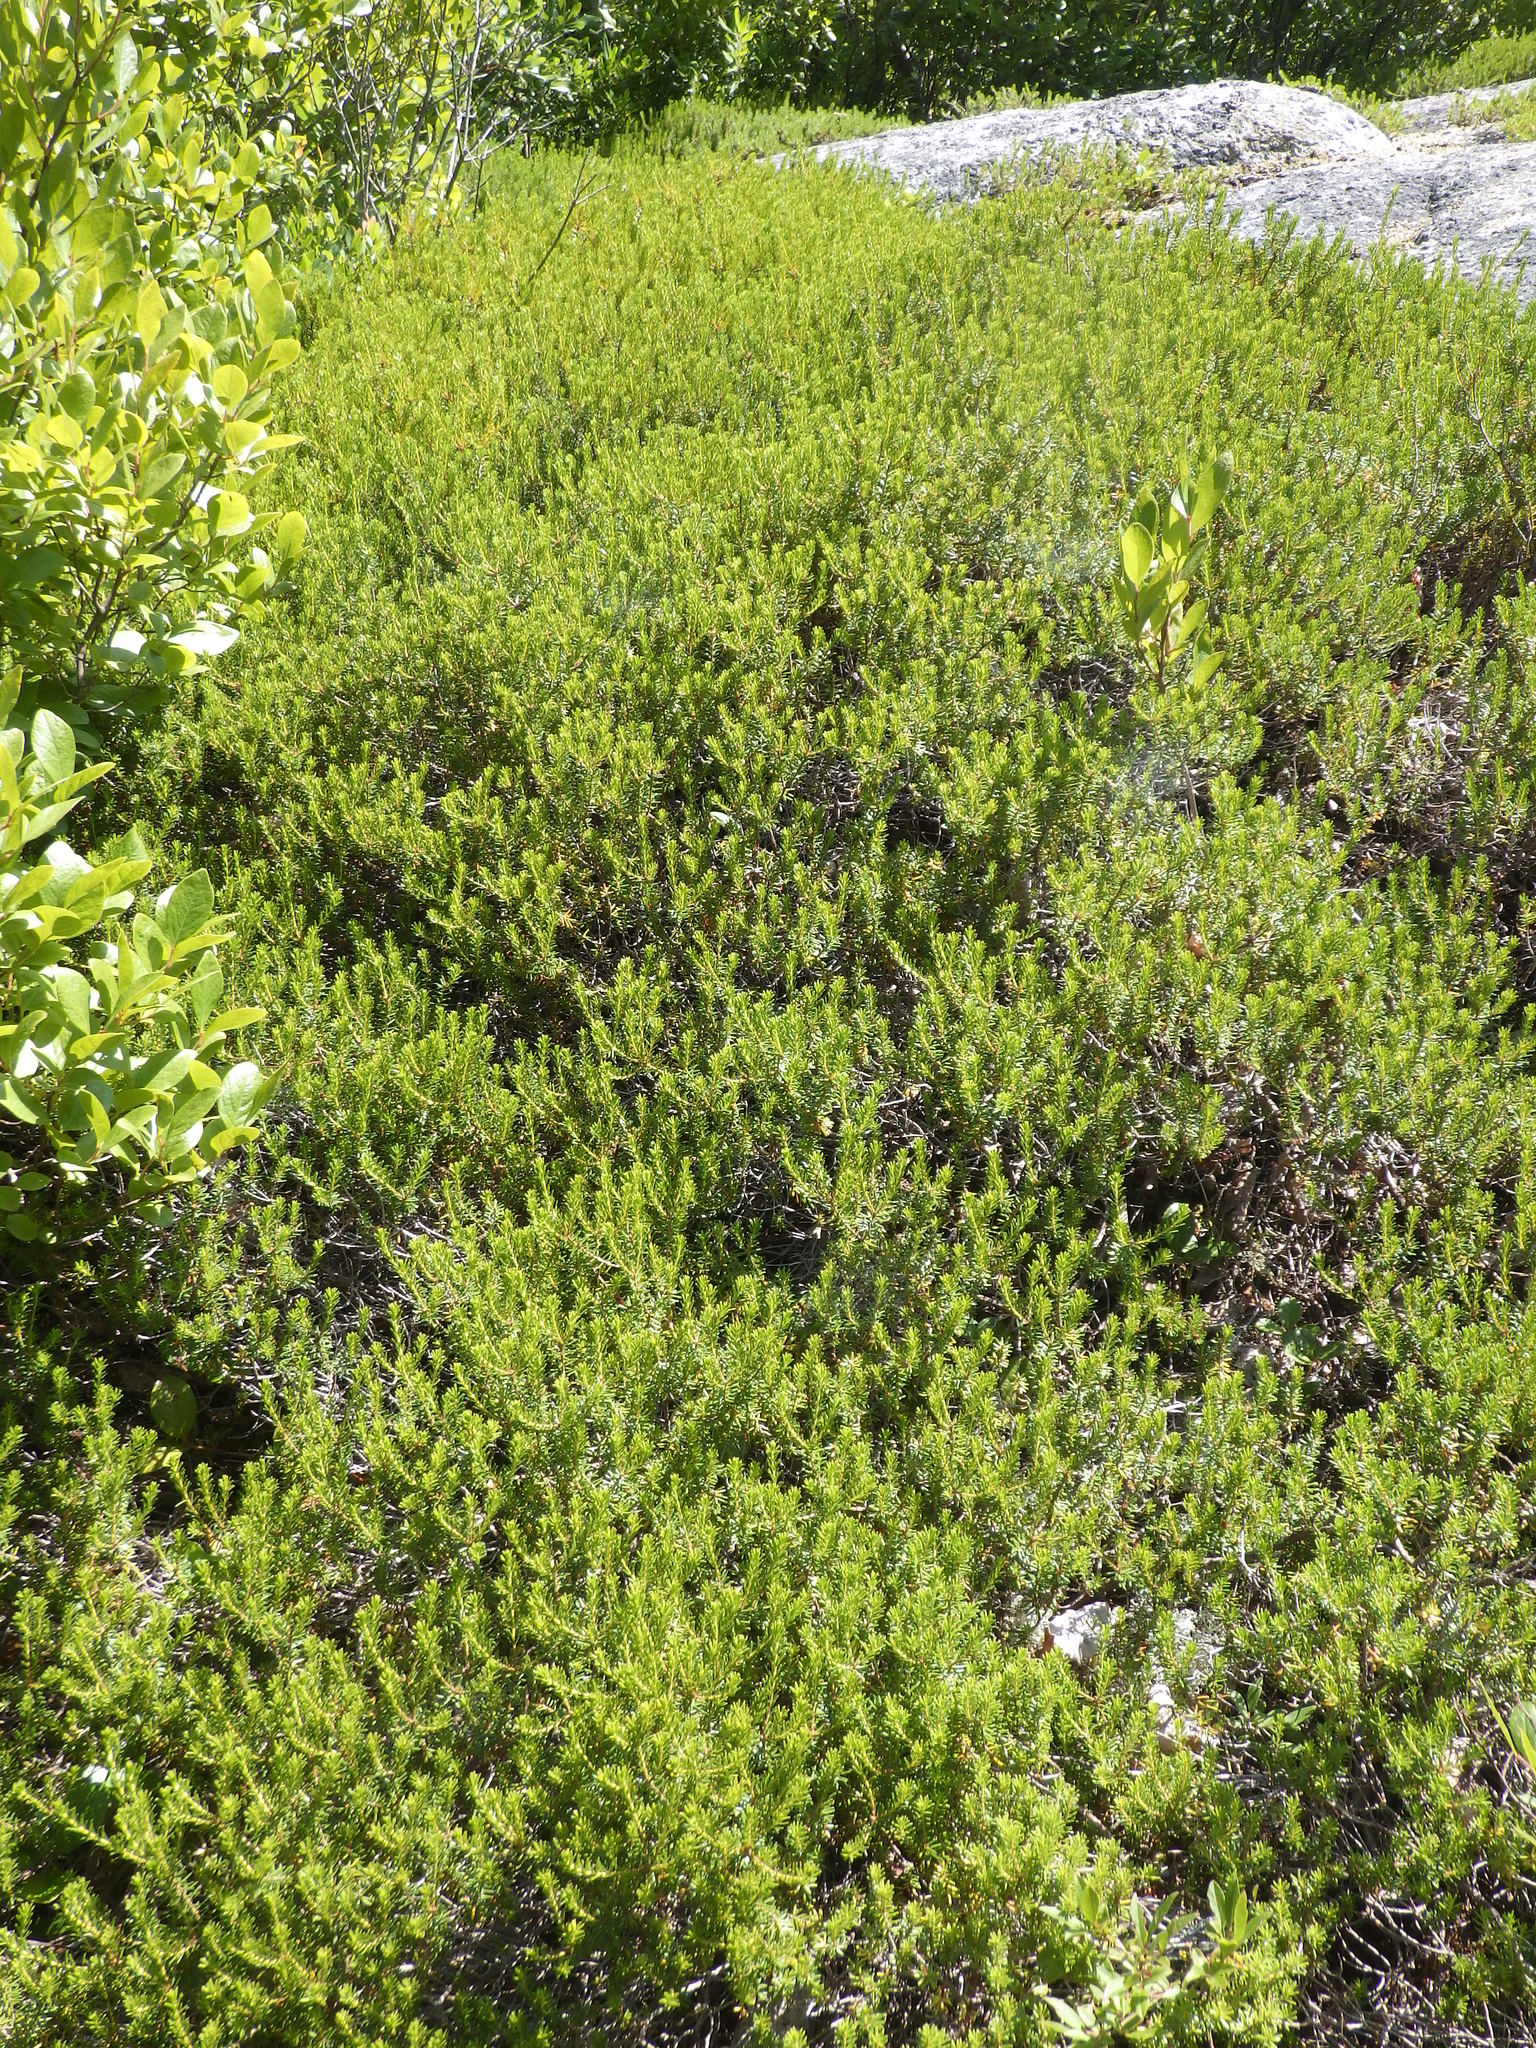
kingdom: Plantae
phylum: Tracheophyta
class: Magnoliopsida
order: Ericales
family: Ericaceae
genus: Corema
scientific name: Corema conradii
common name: Broom-crowberry
